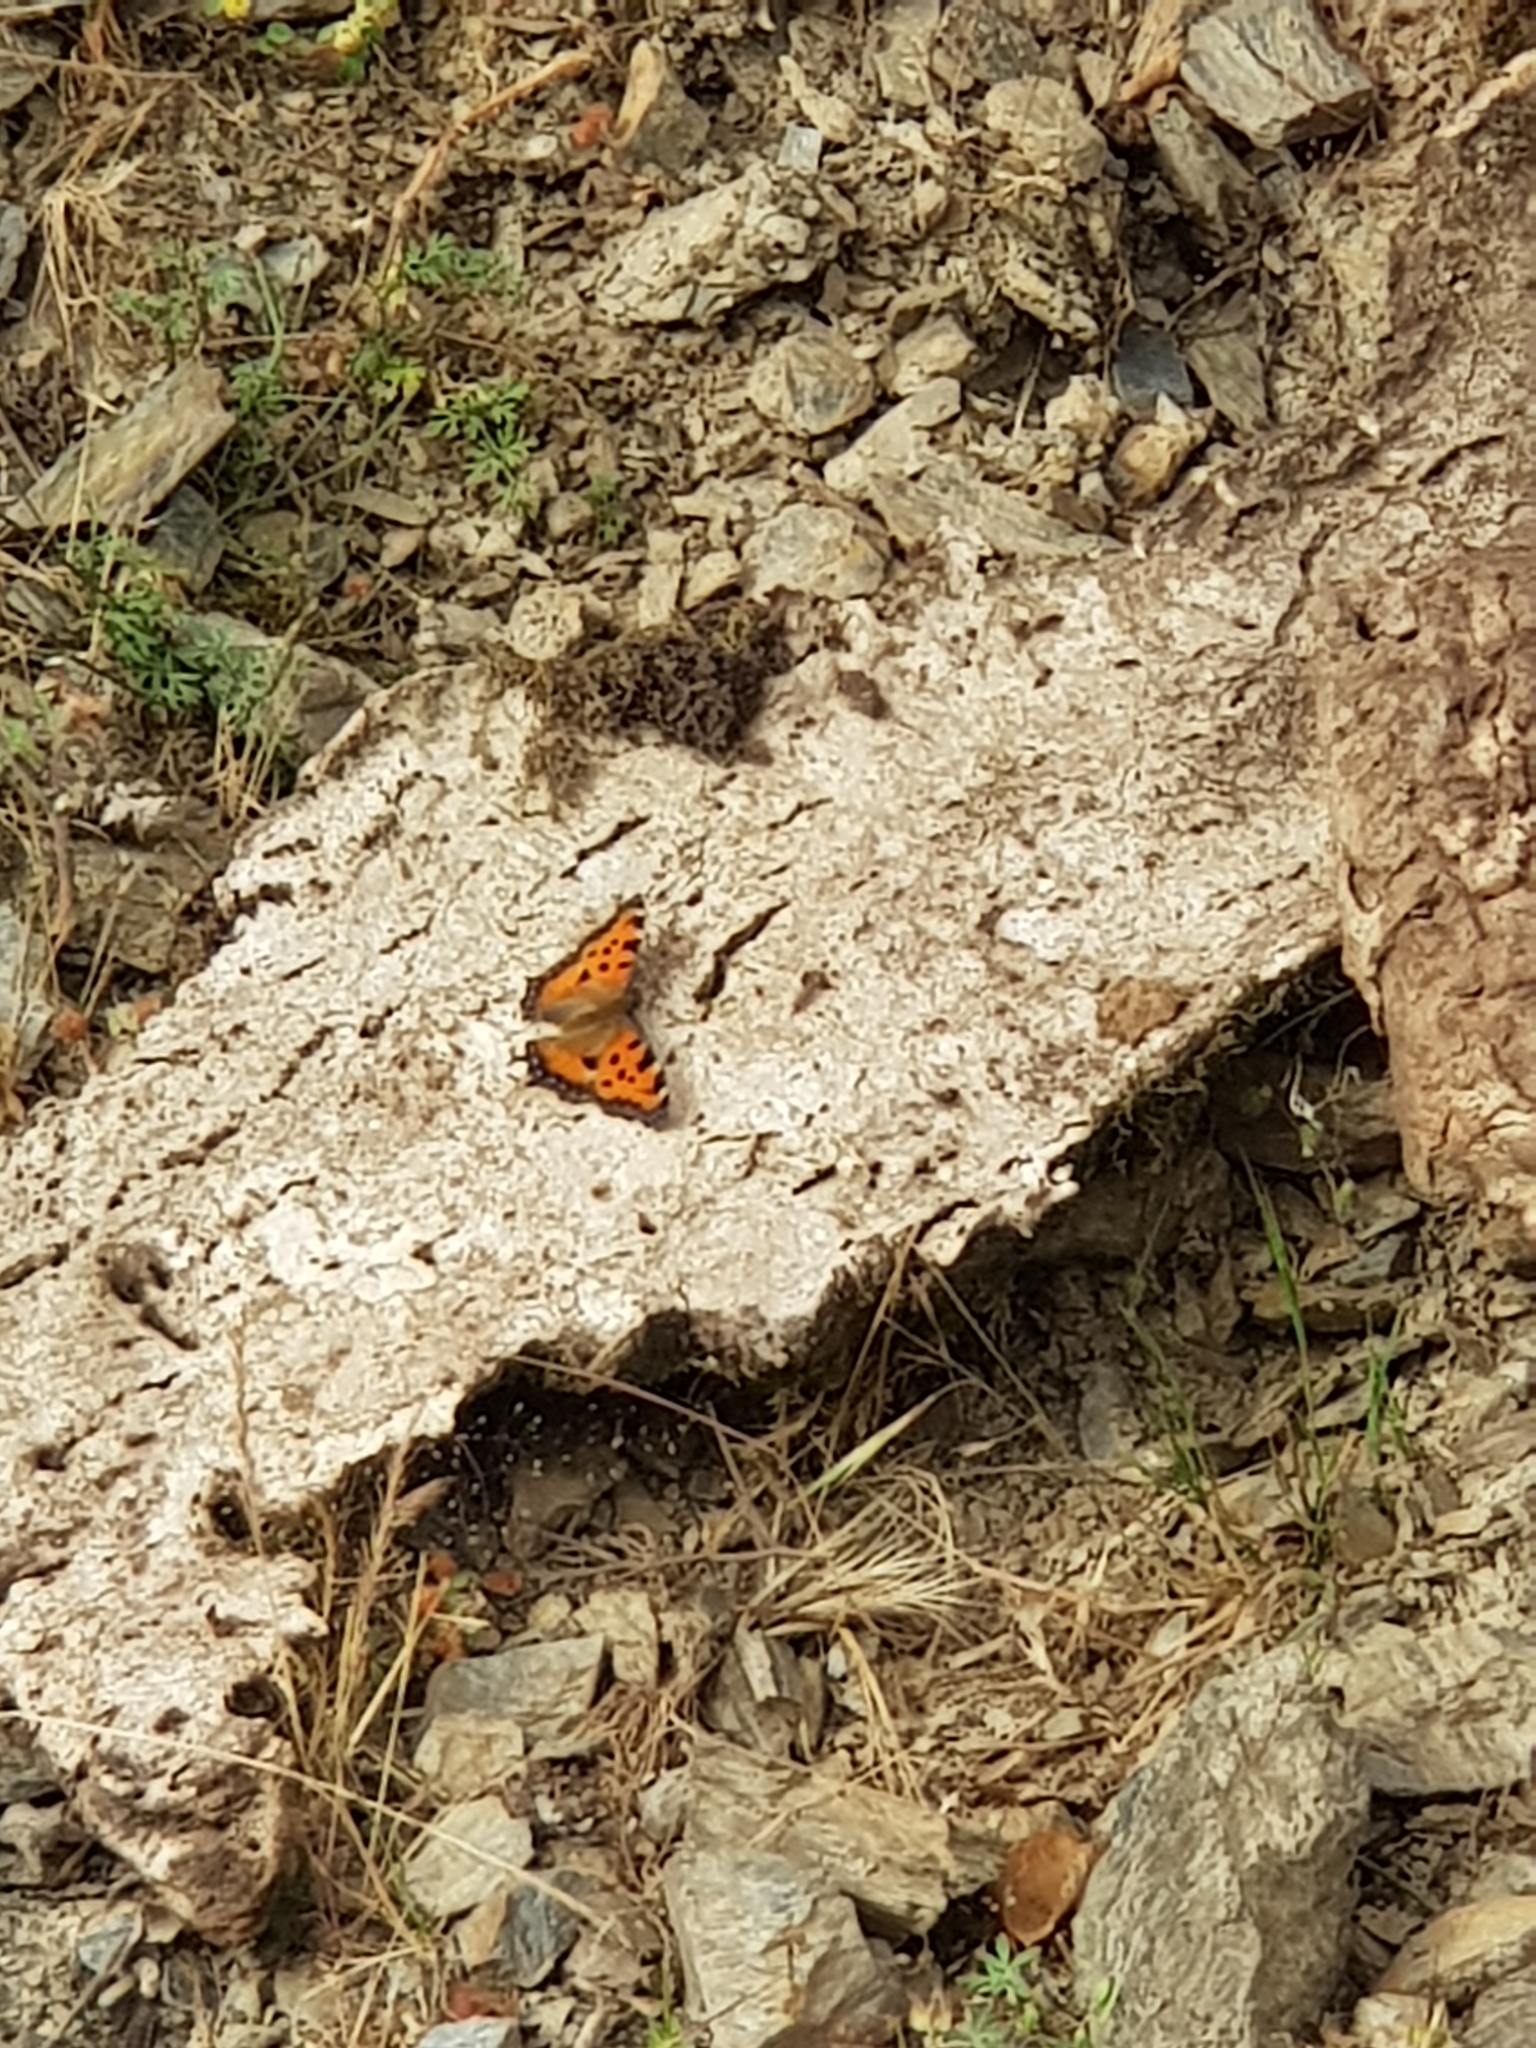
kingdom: Animalia
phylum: Arthropoda
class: Insecta
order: Lepidoptera
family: Nymphalidae
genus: Nymphalis
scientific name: Nymphalis polychloros
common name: Large tortoiseshell
